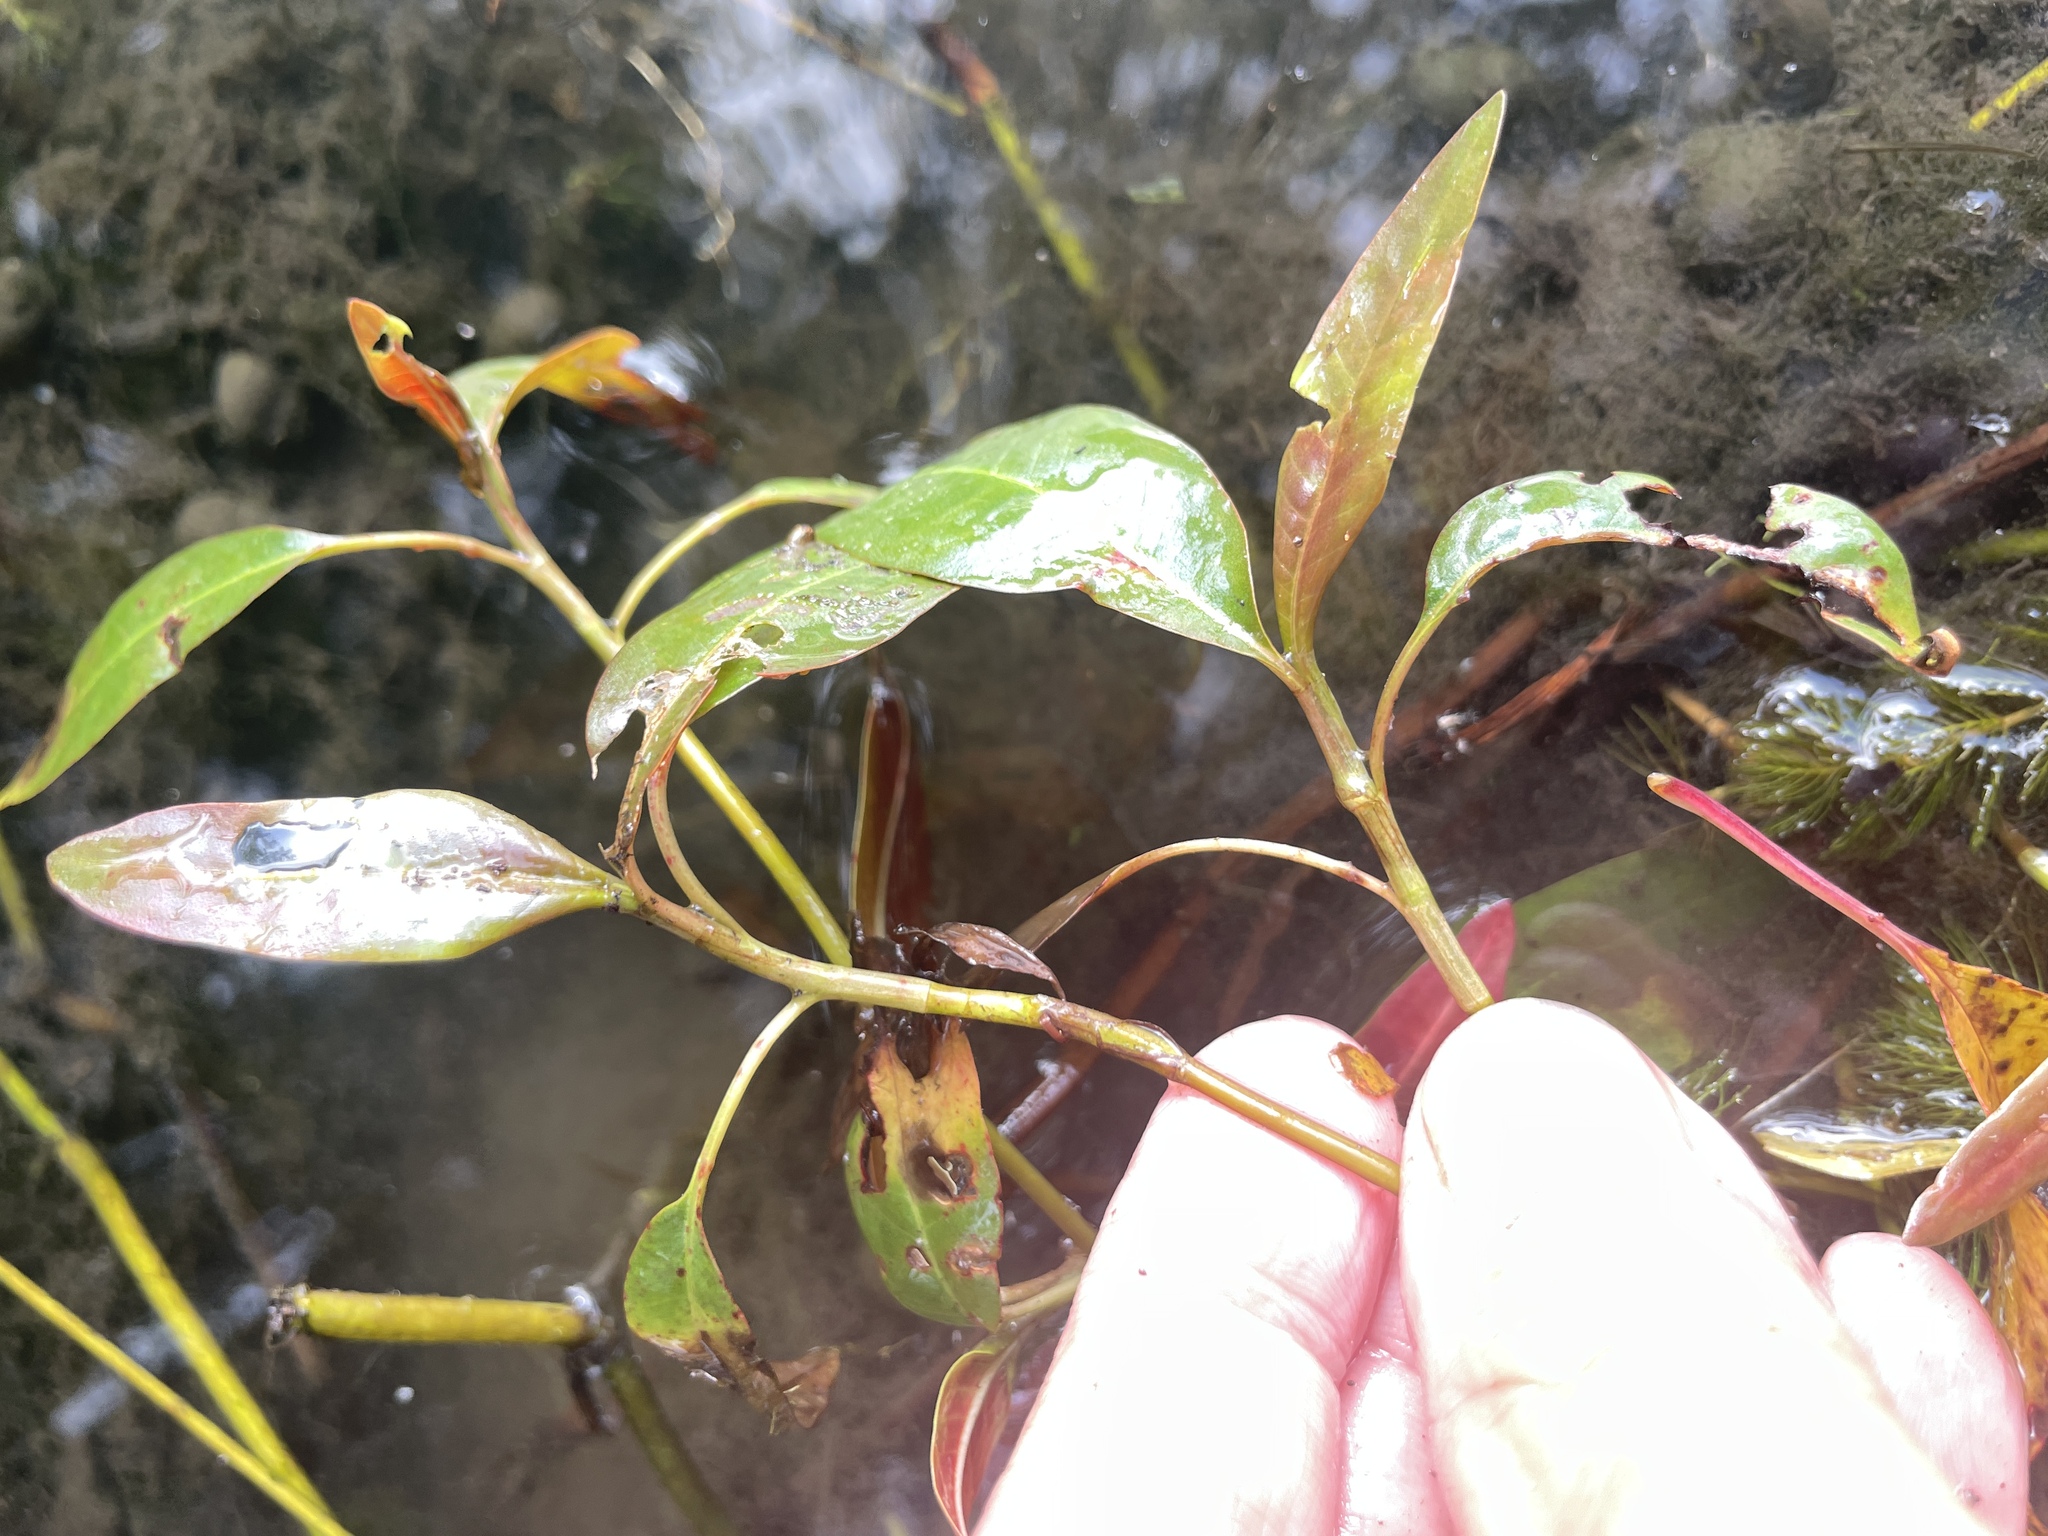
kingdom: Plantae
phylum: Tracheophyta
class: Magnoliopsida
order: Caryophyllales
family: Polygonaceae
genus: Persicaria
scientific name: Persicaria amphibia
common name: Amphibious bistort
